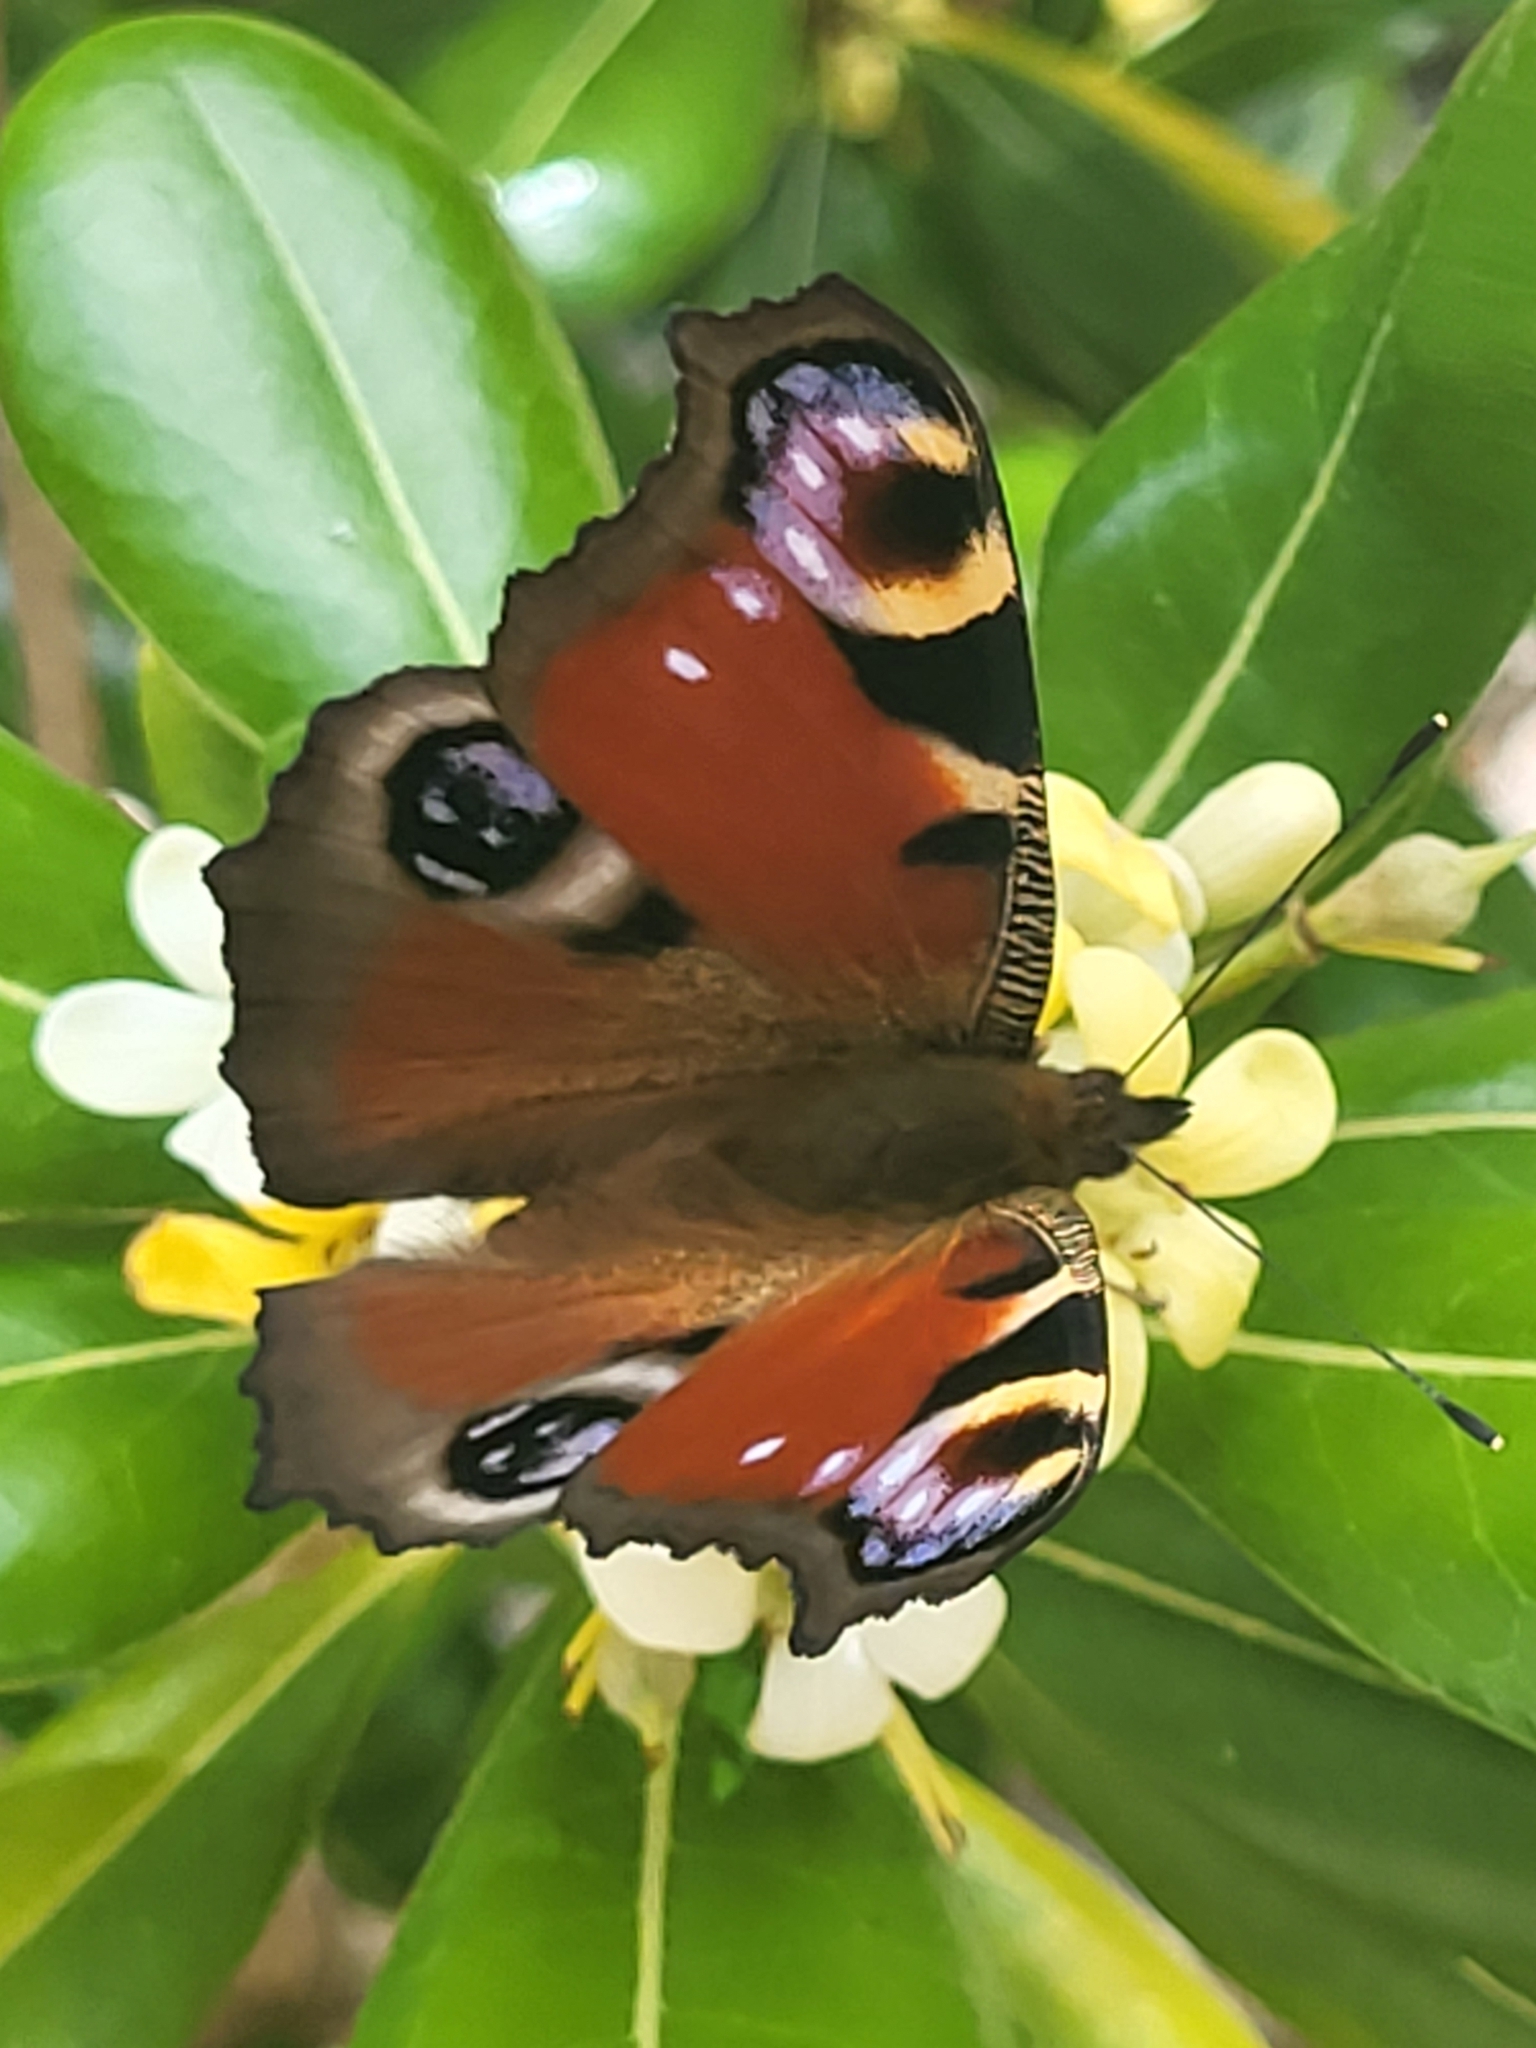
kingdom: Animalia
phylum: Arthropoda
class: Insecta
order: Lepidoptera
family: Nymphalidae
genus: Aglais
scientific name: Aglais io
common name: Peacock
